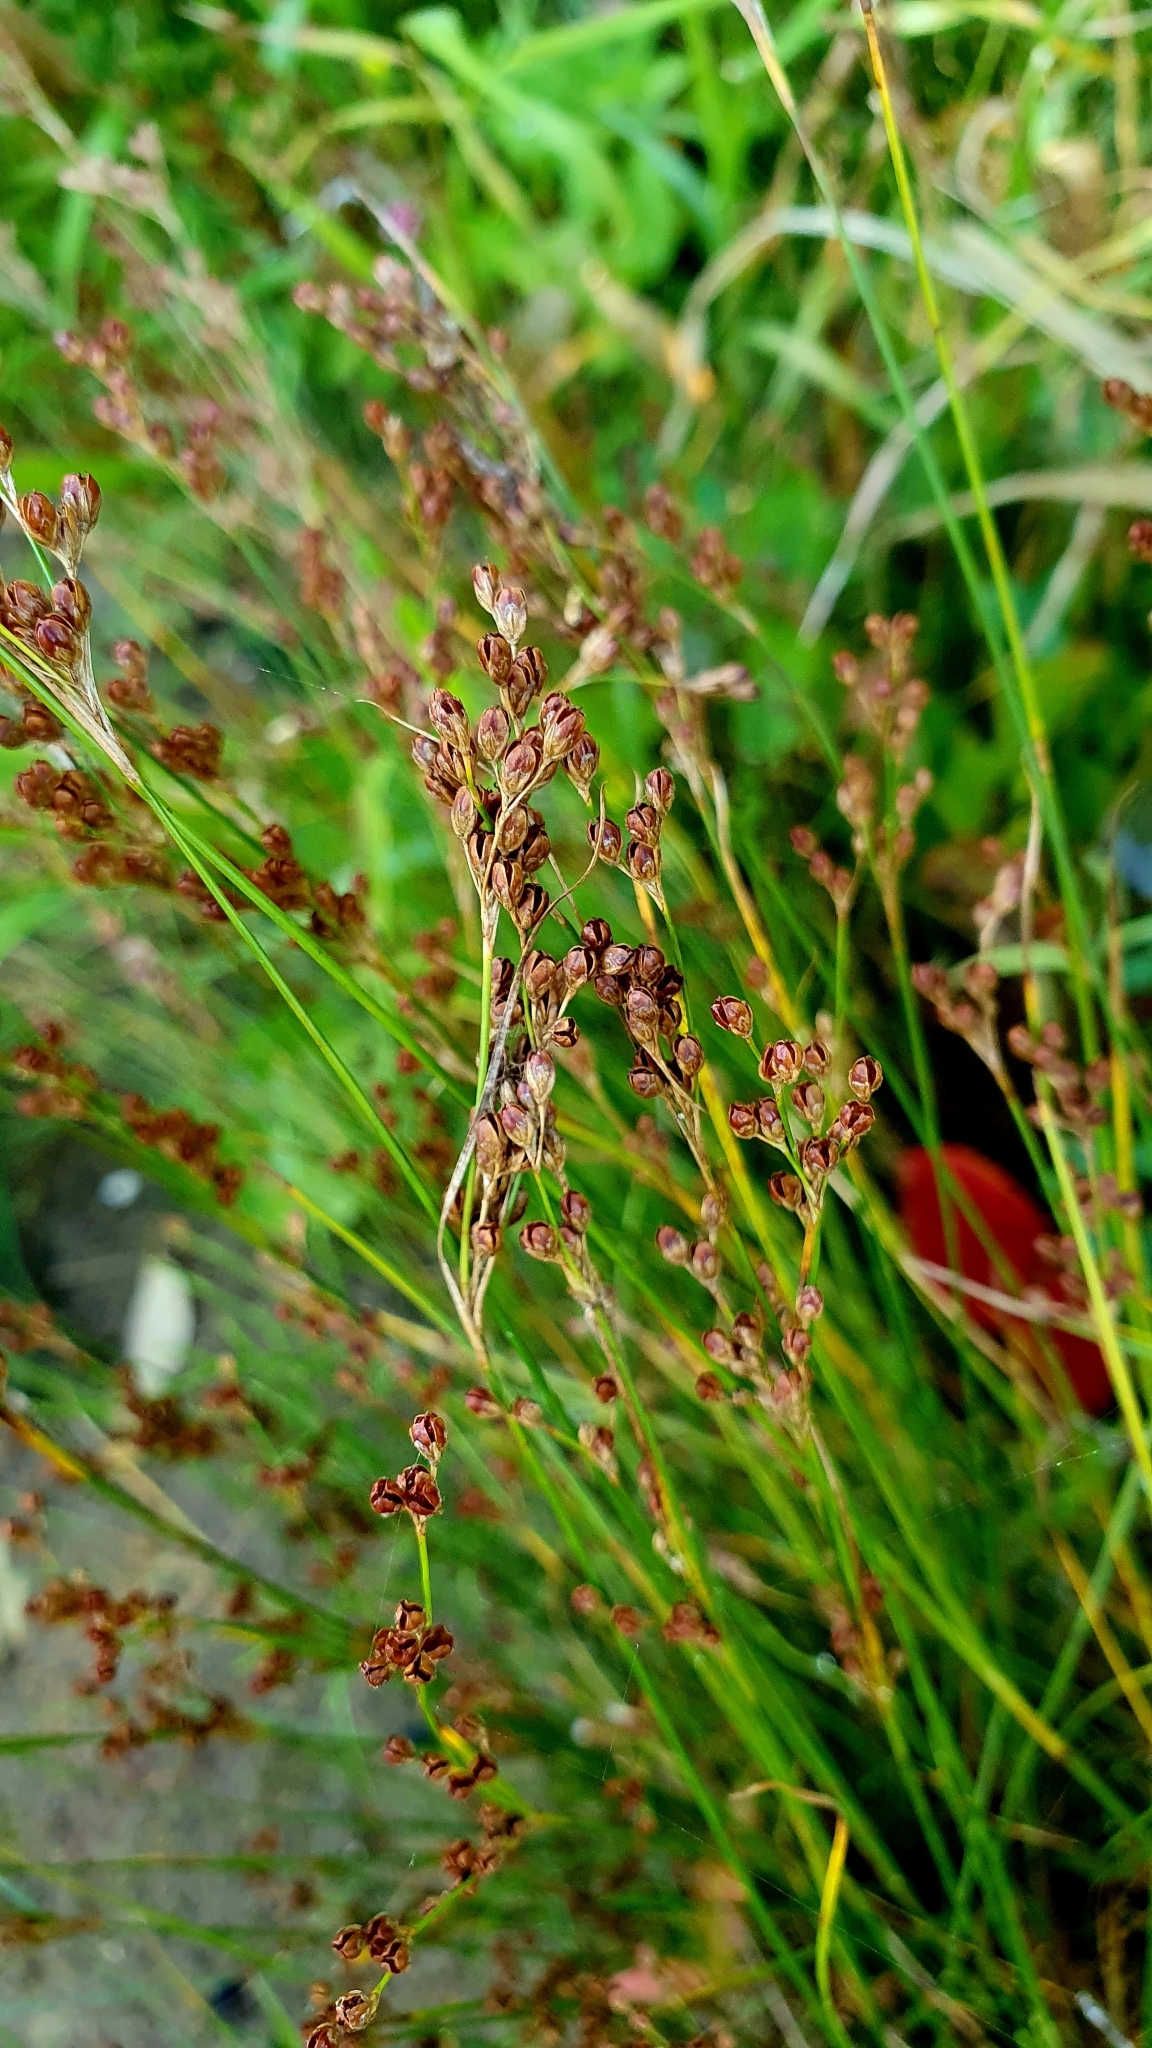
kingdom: Plantae
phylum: Tracheophyta
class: Liliopsida
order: Poales
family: Juncaceae
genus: Juncus
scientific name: Juncus compressus
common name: Round-fruited rush
